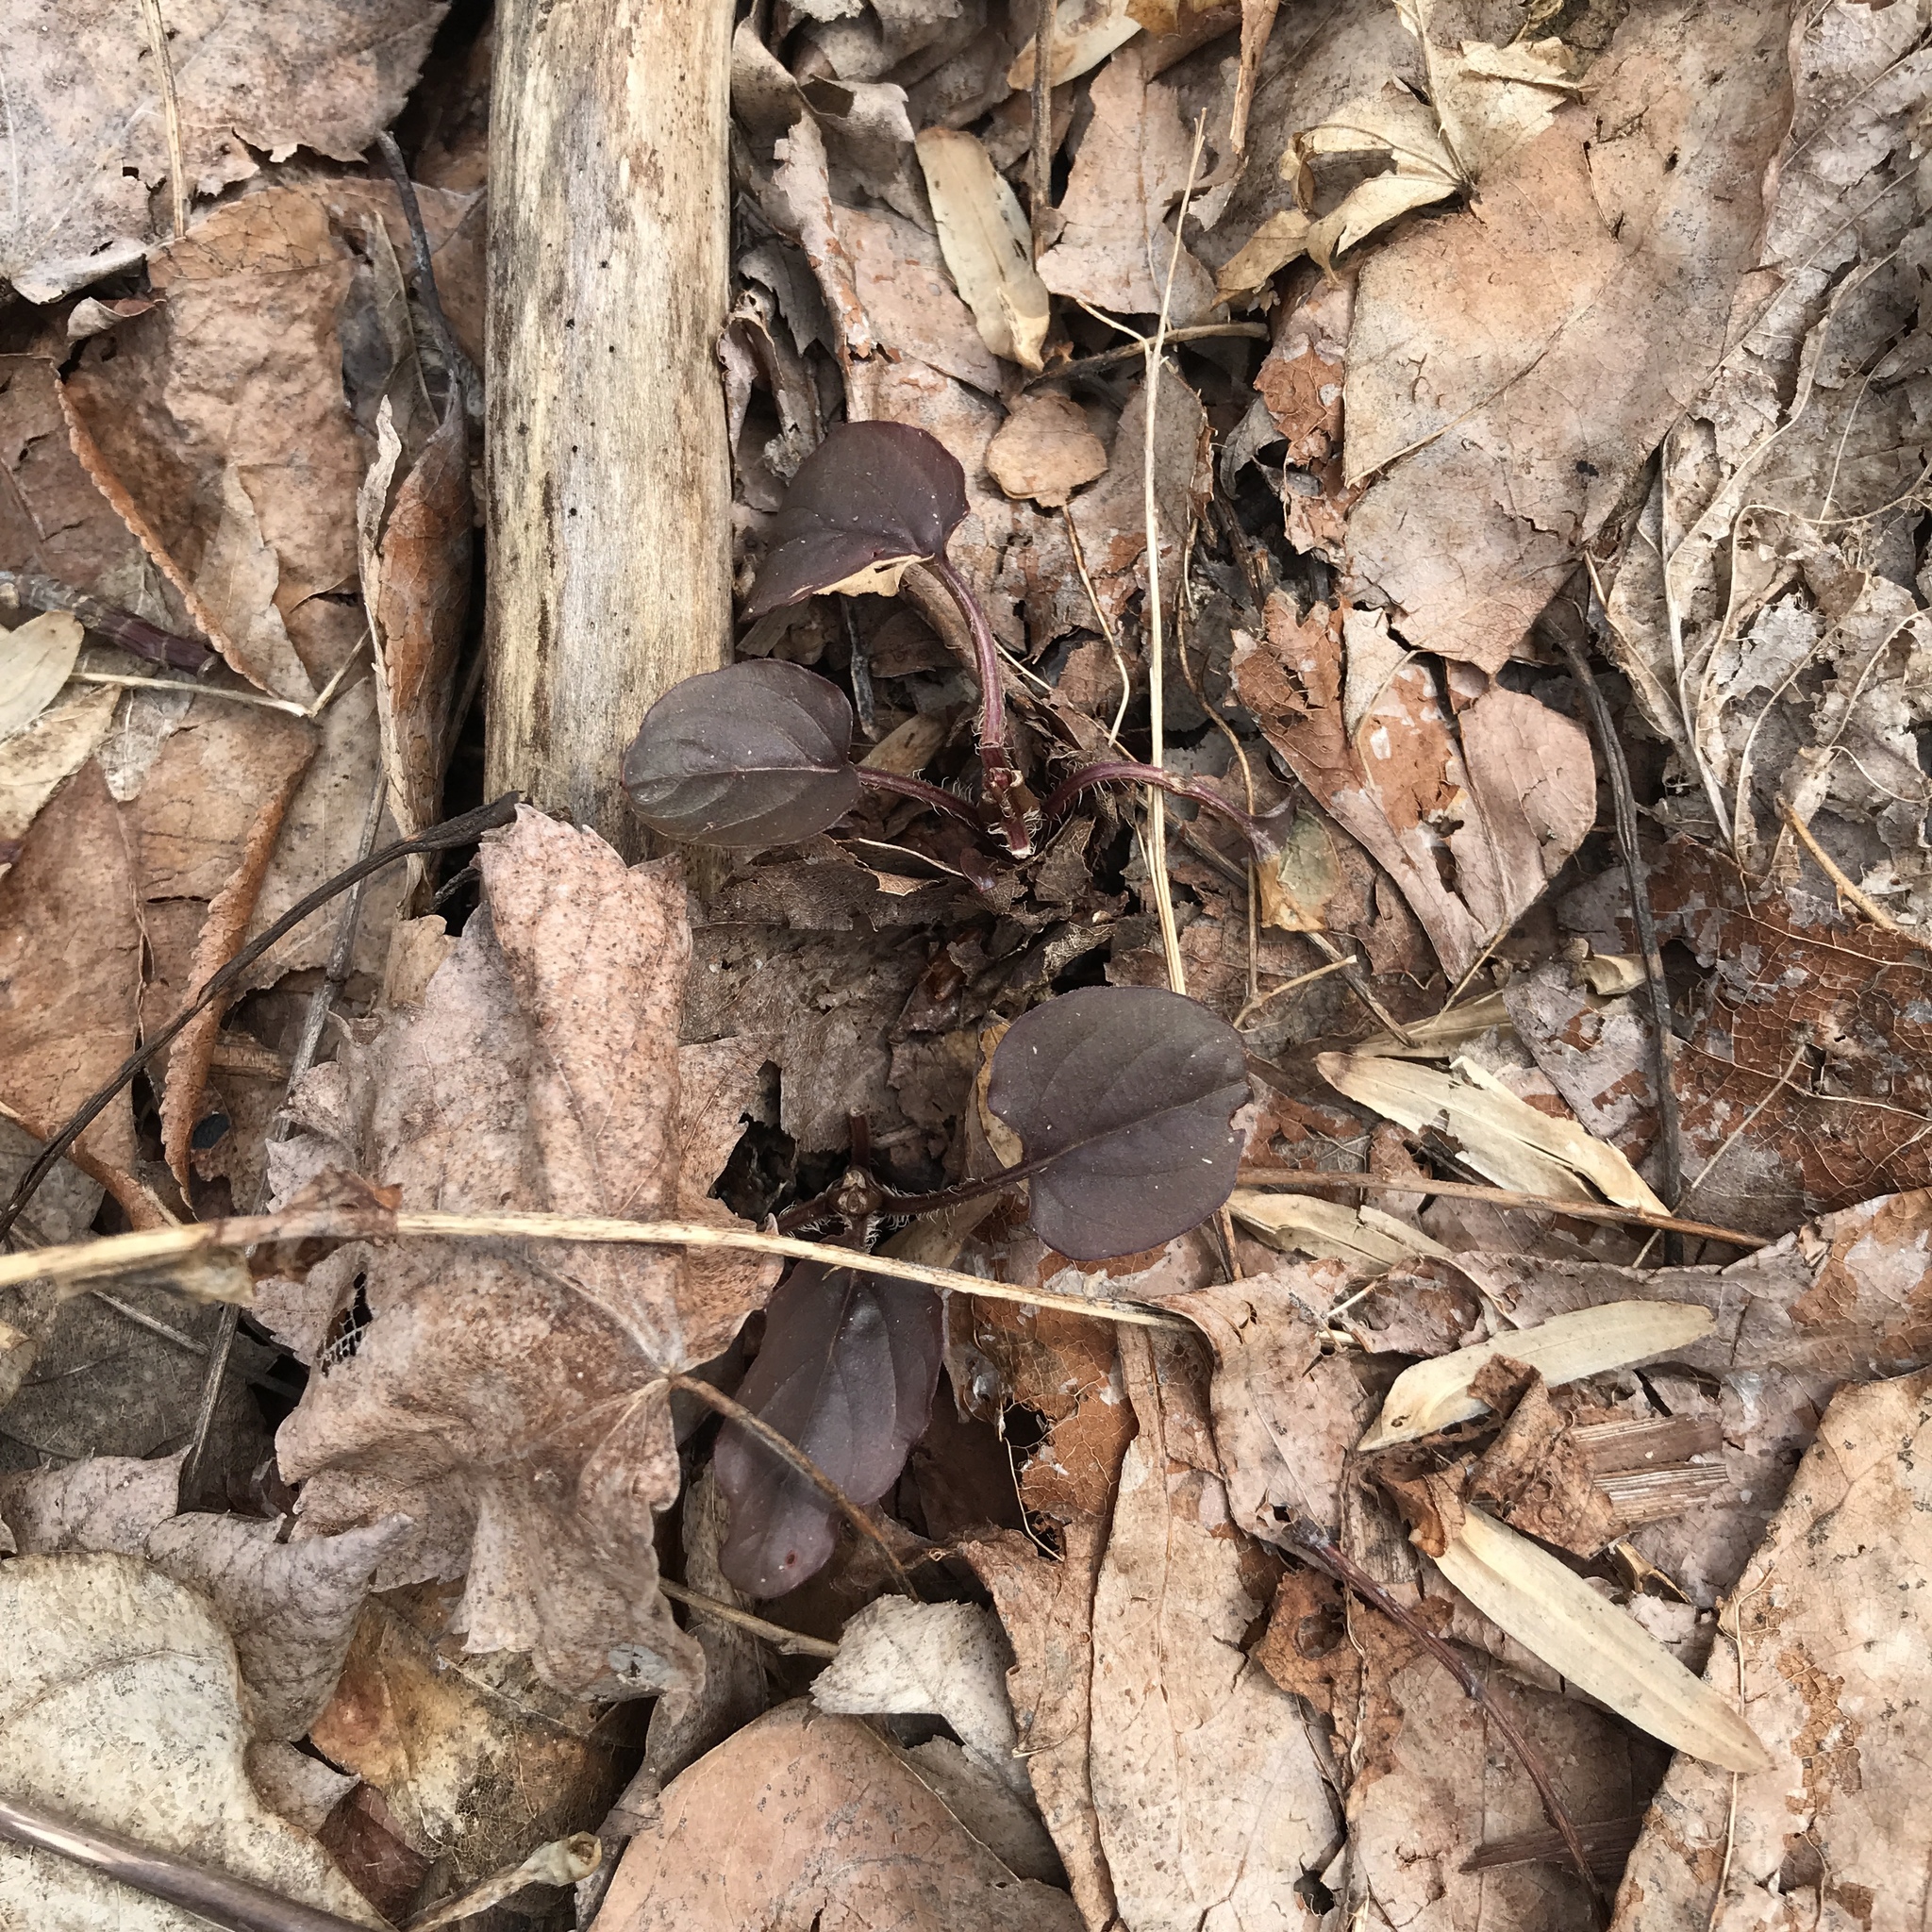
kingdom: Plantae
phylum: Tracheophyta
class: Magnoliopsida
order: Ericales
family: Primulaceae
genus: Lysimachia
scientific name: Lysimachia ciliata
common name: Fringed loosestrife
